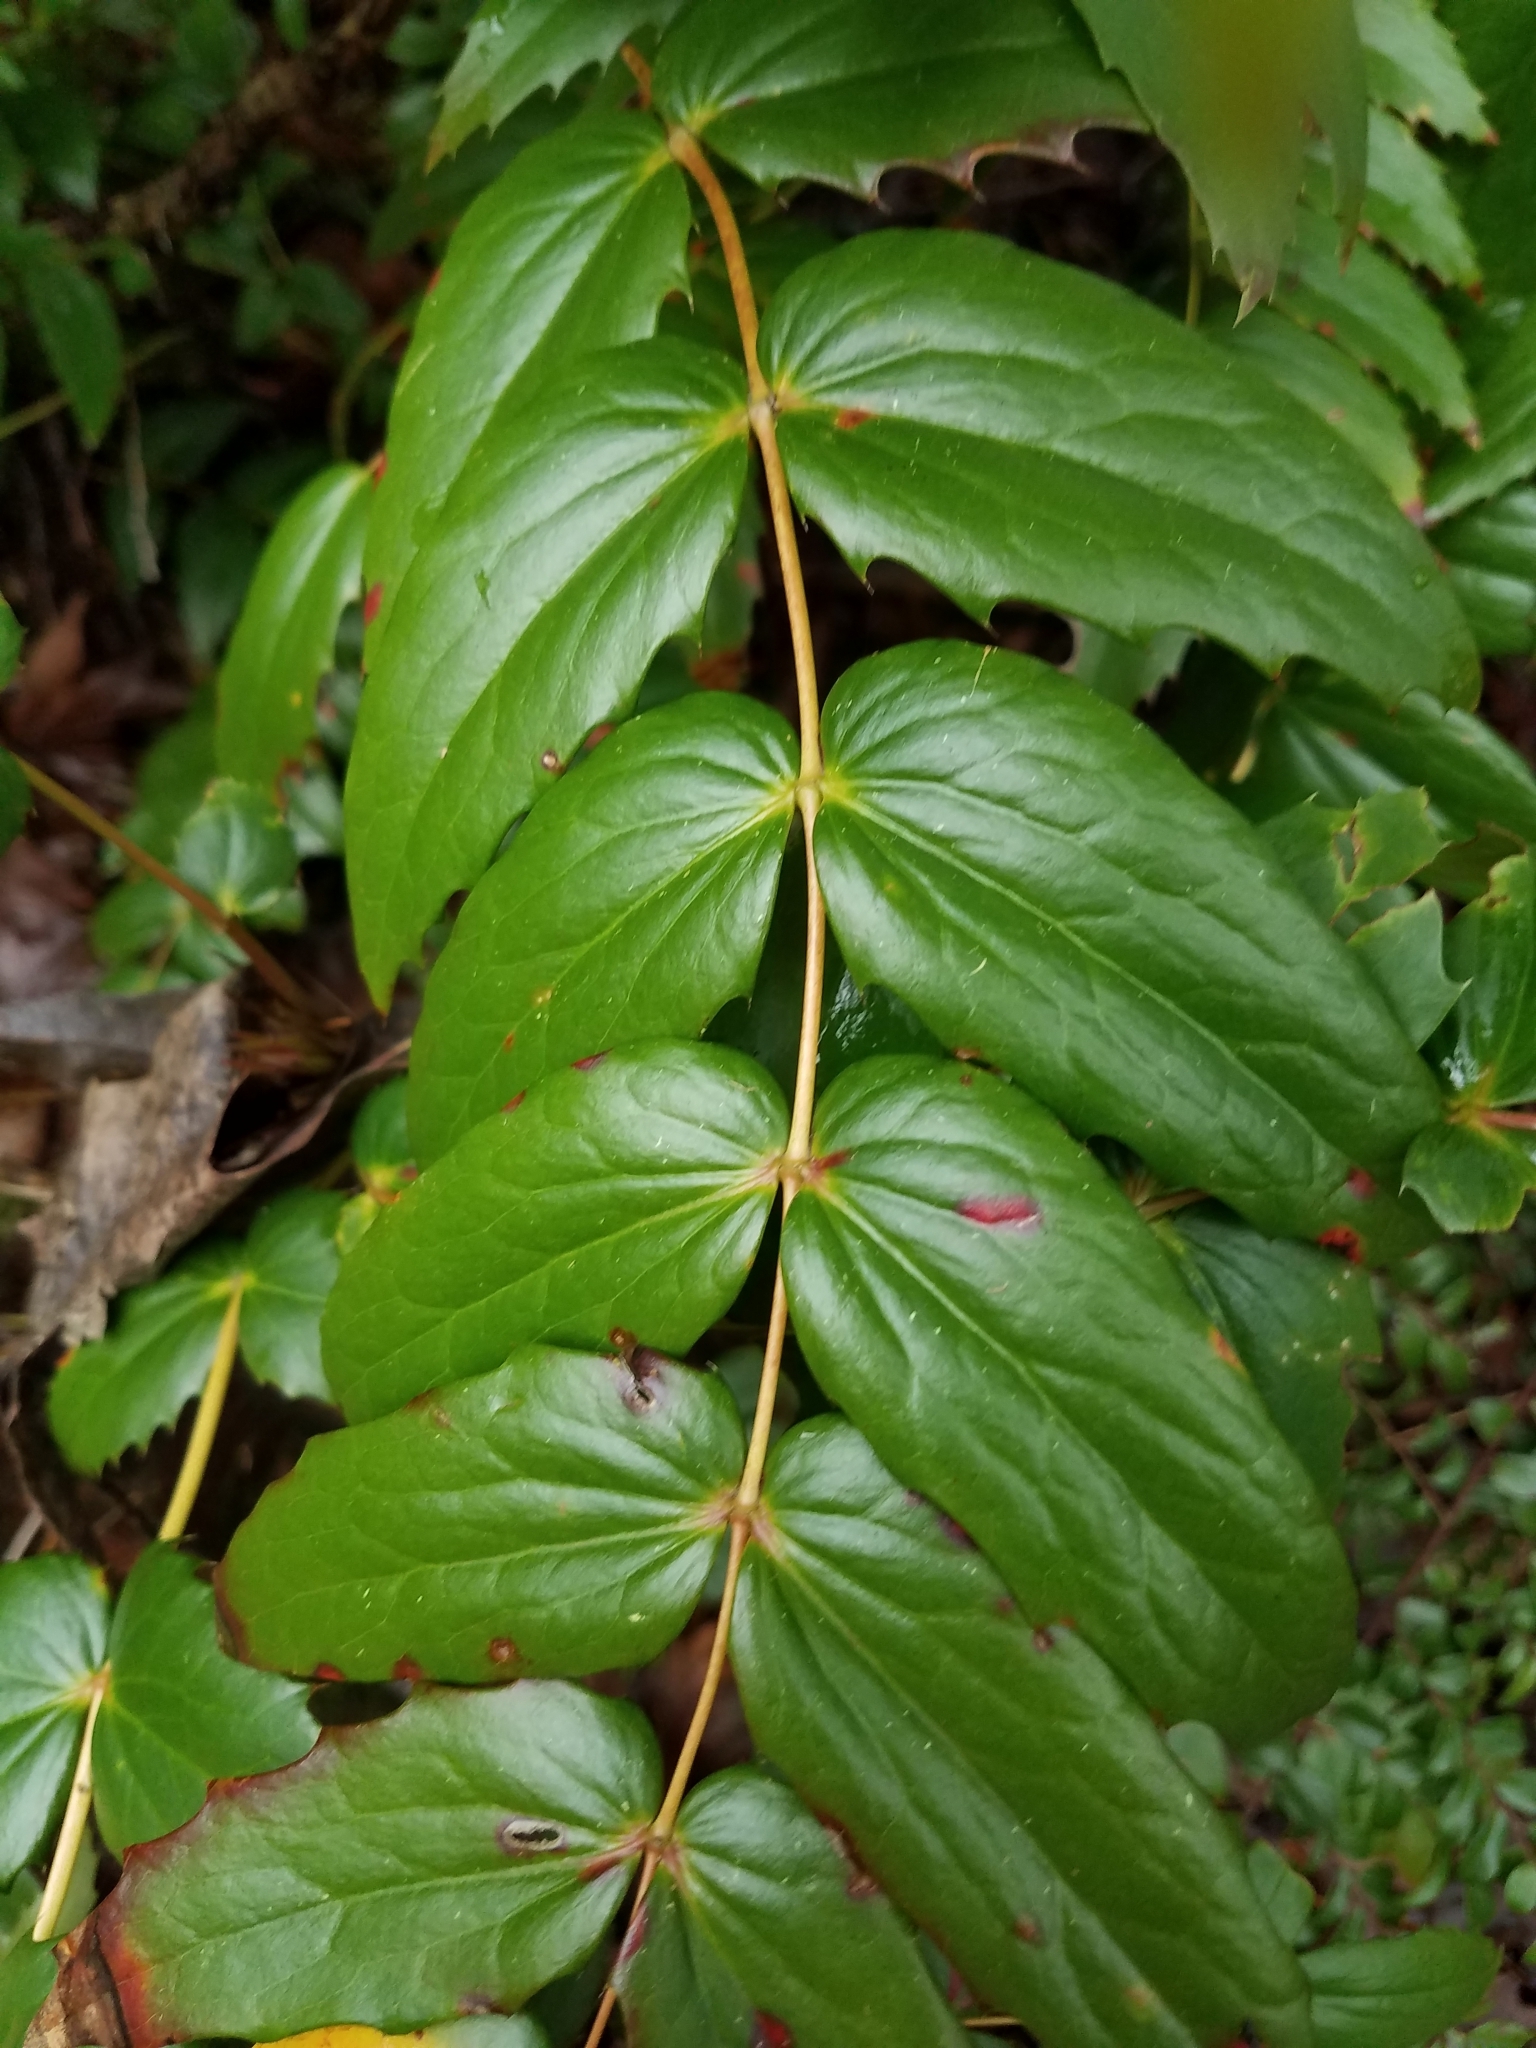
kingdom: Plantae
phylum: Tracheophyta
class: Magnoliopsida
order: Ranunculales
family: Berberidaceae
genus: Mahonia
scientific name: Mahonia nervosa
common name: Cascade oregon-grape
